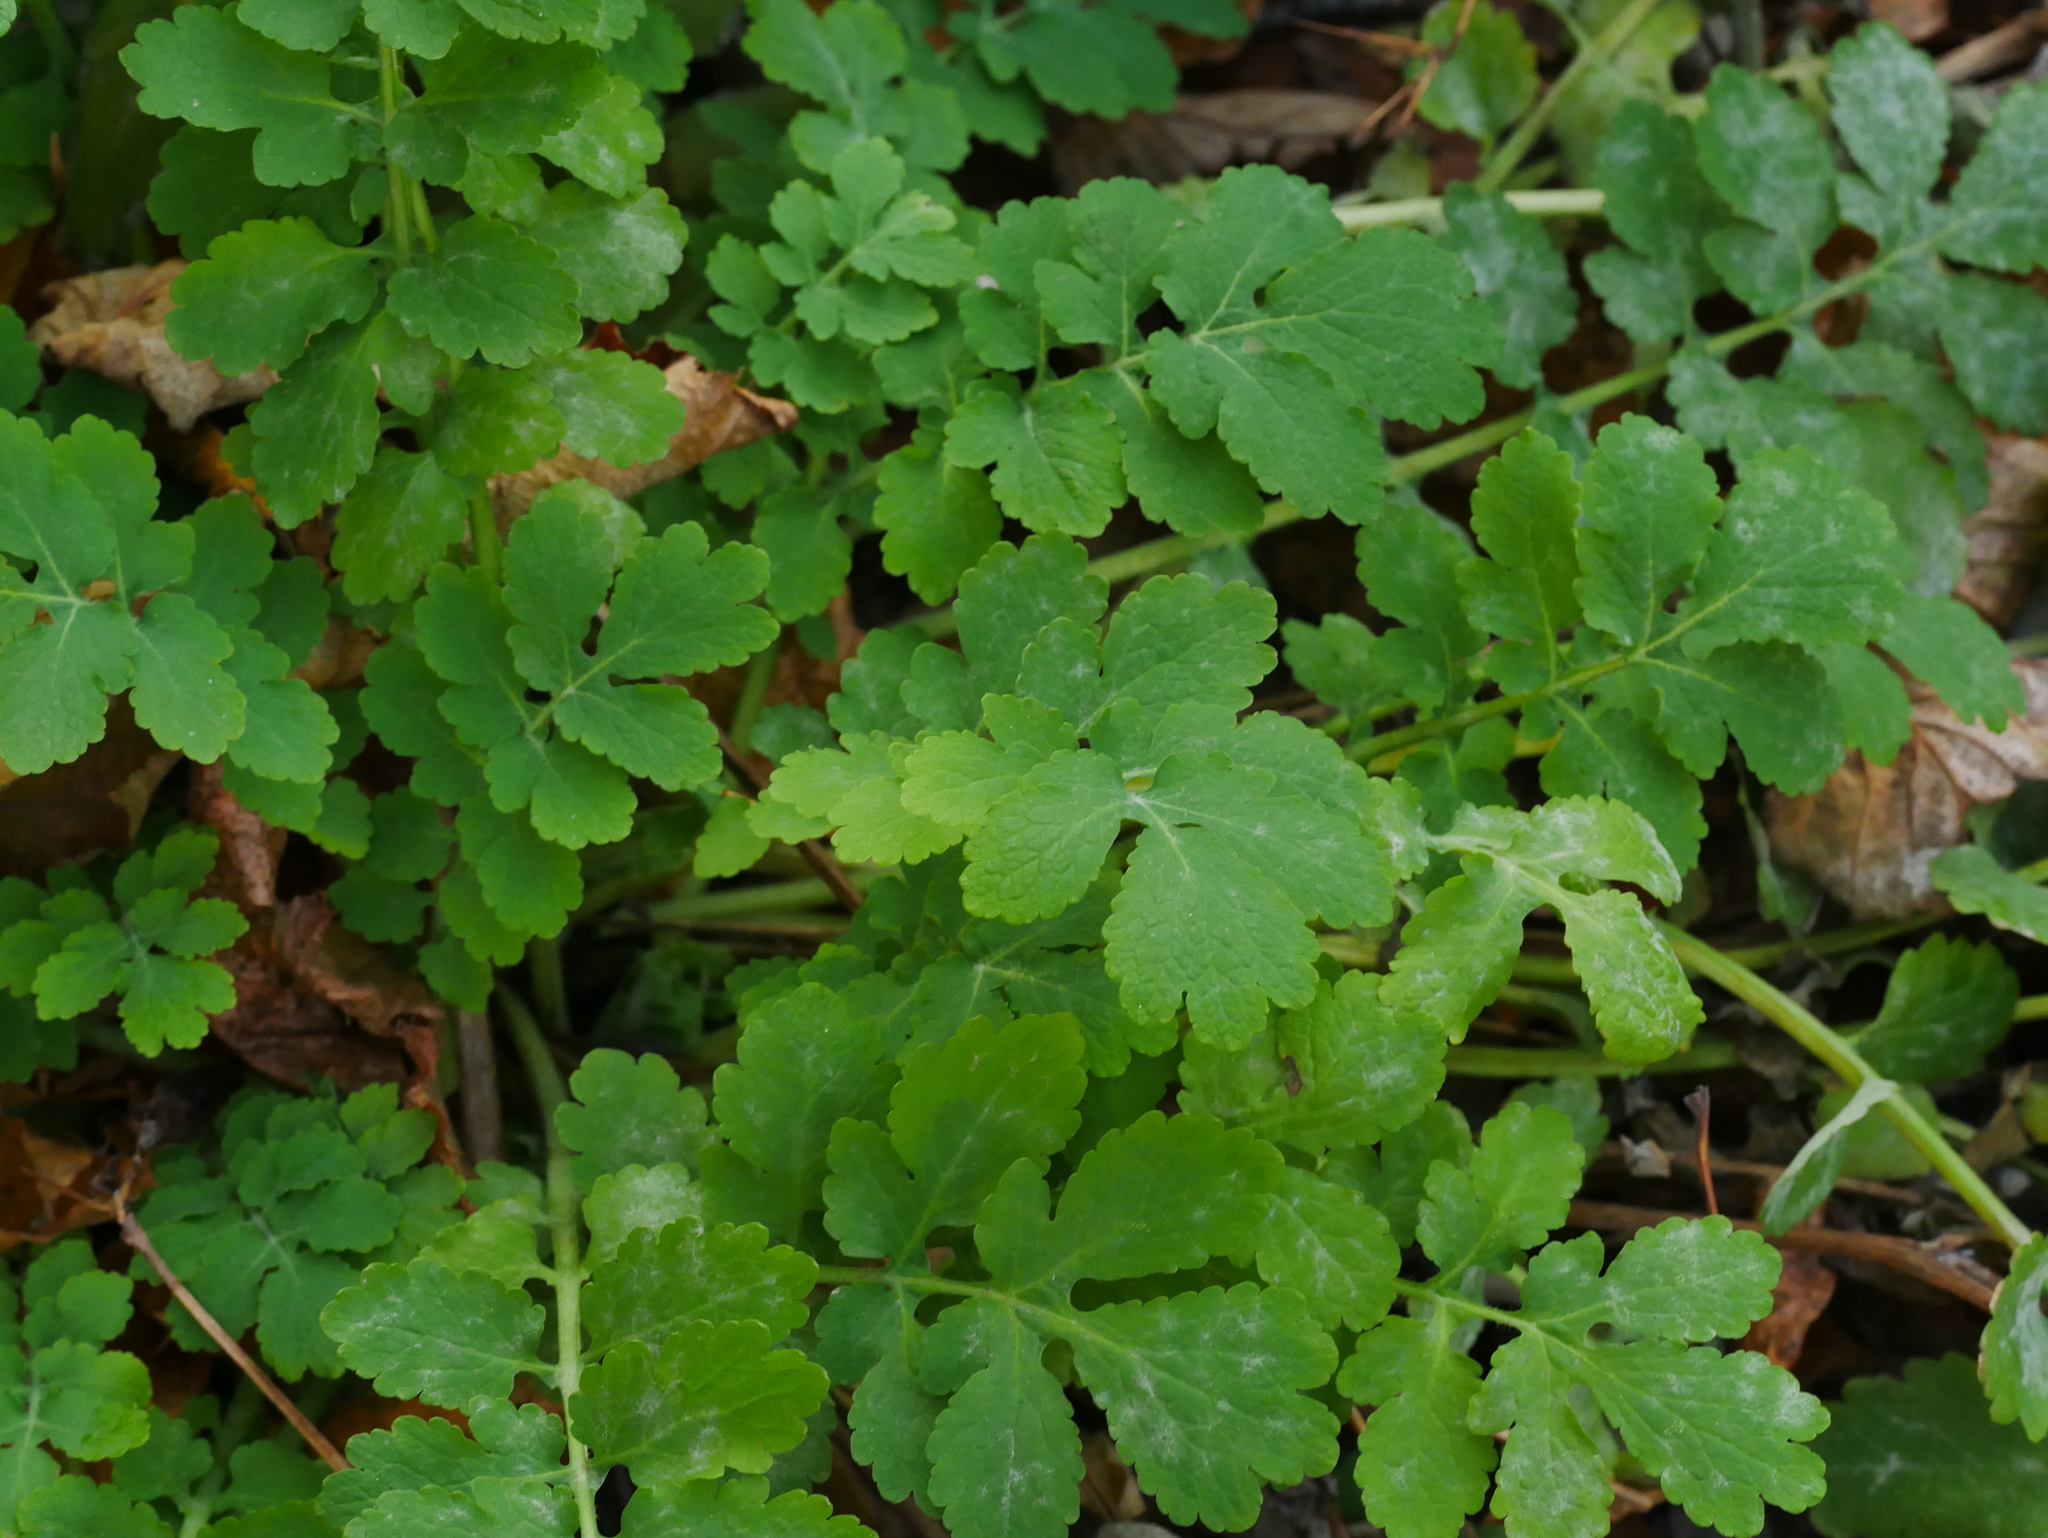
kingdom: Plantae
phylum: Tracheophyta
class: Magnoliopsida
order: Ranunculales
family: Papaveraceae
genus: Chelidonium
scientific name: Chelidonium majus
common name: Greater celandine
